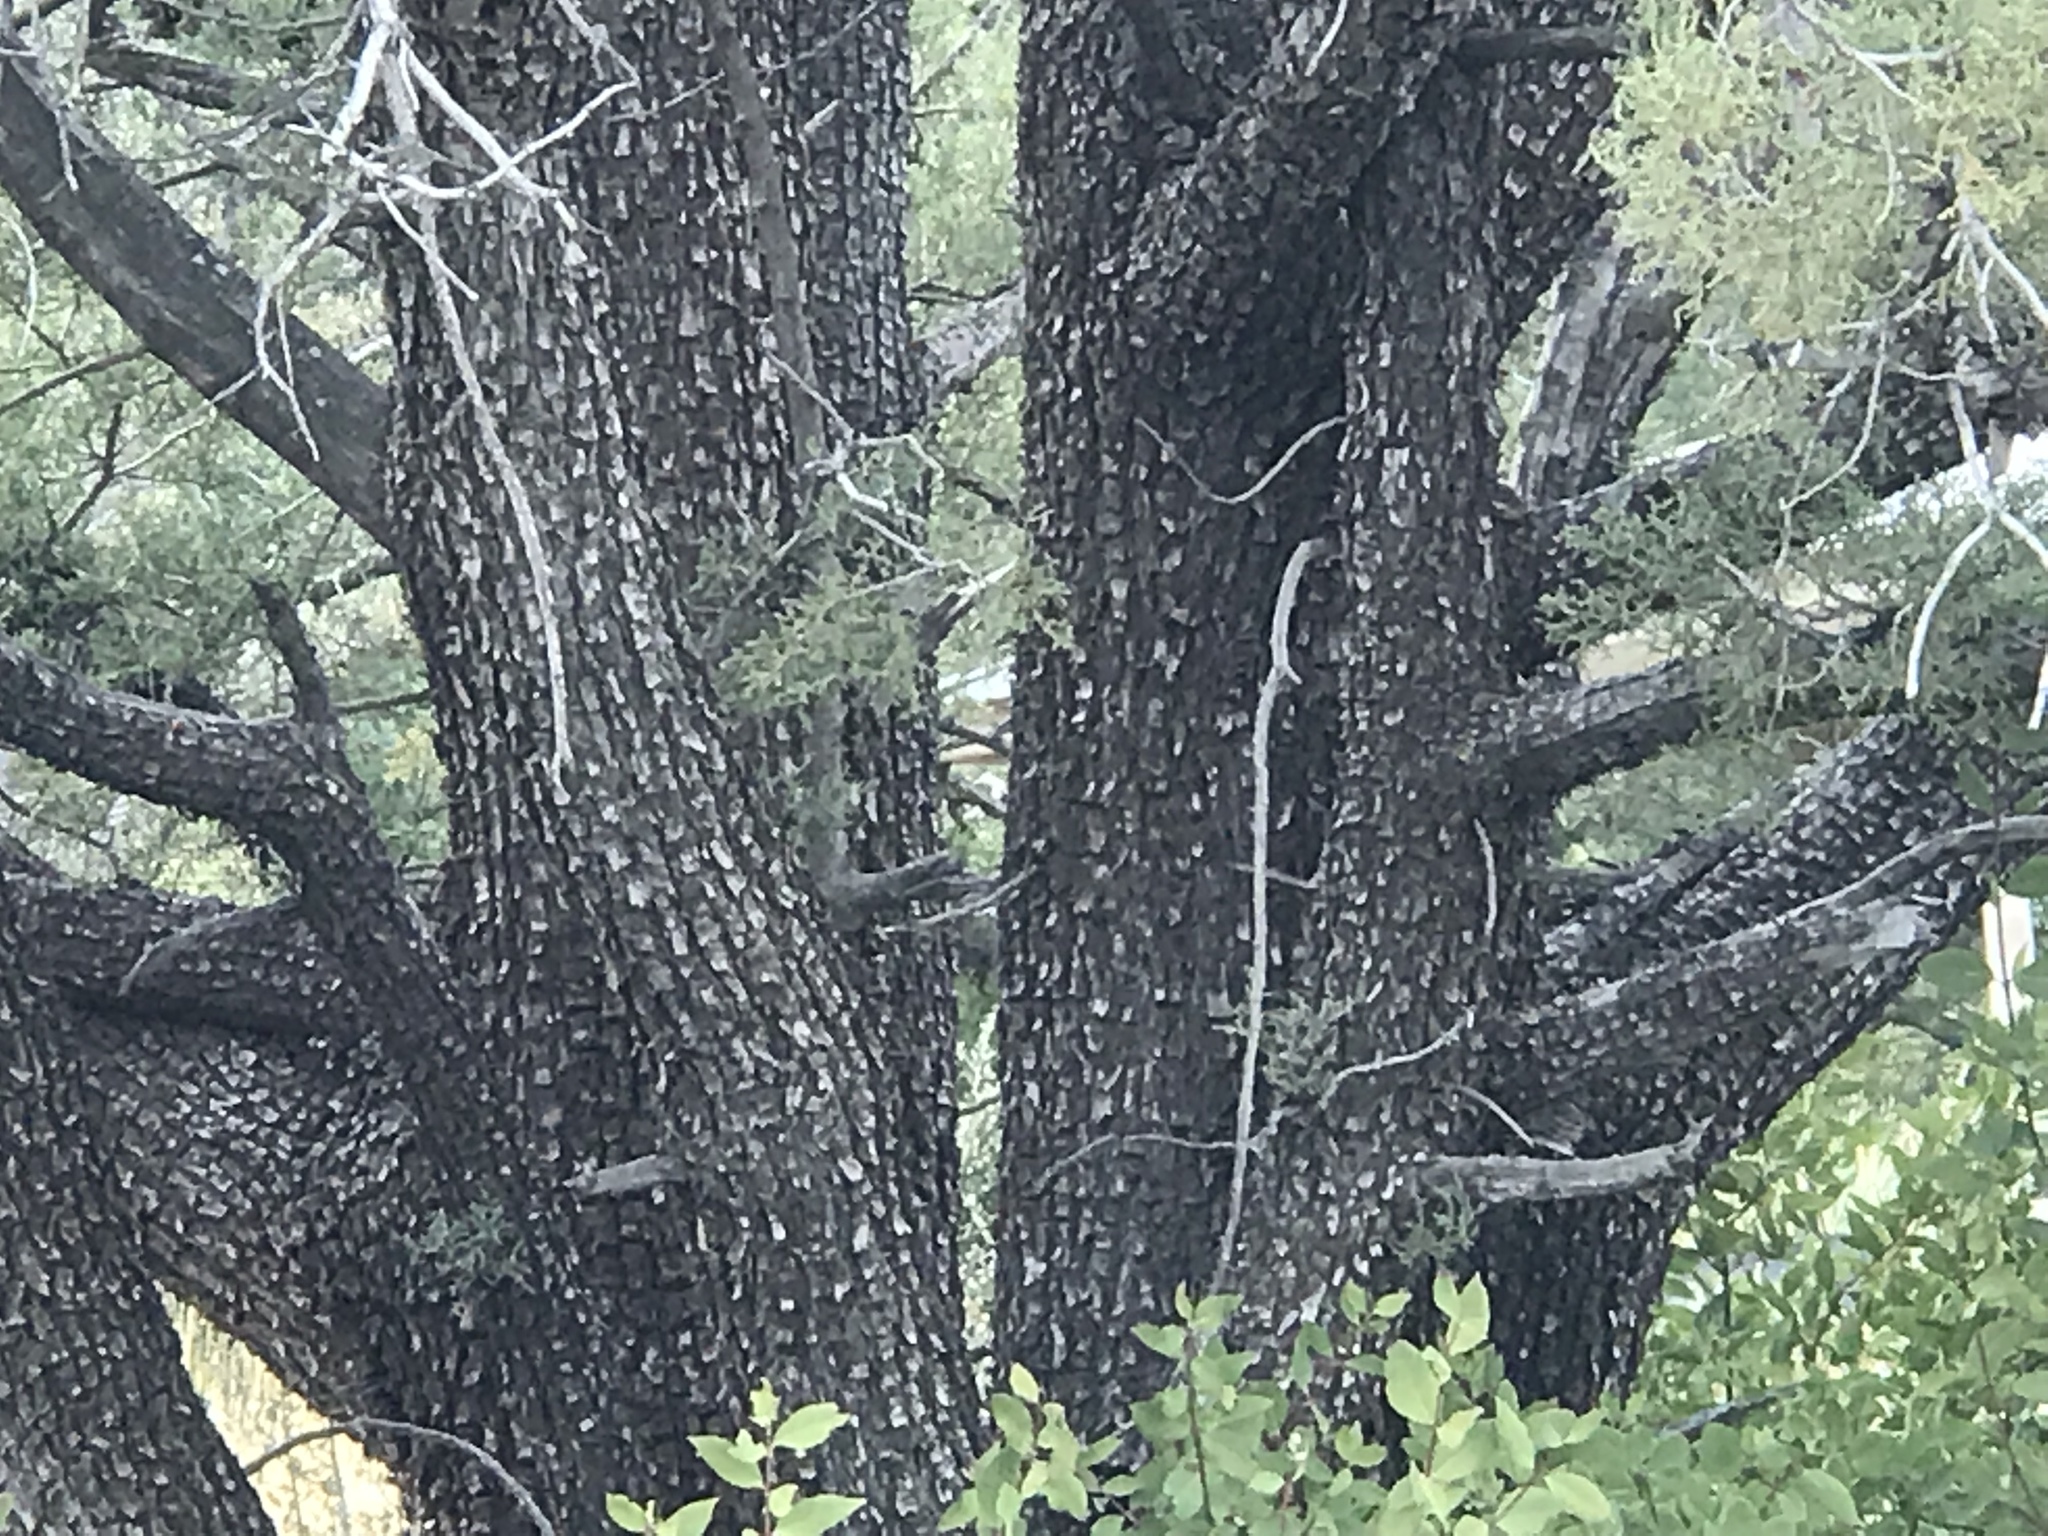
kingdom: Plantae
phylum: Tracheophyta
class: Pinopsida
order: Pinales
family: Cupressaceae
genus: Juniperus
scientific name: Juniperus deppeana
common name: Alligator juniper
